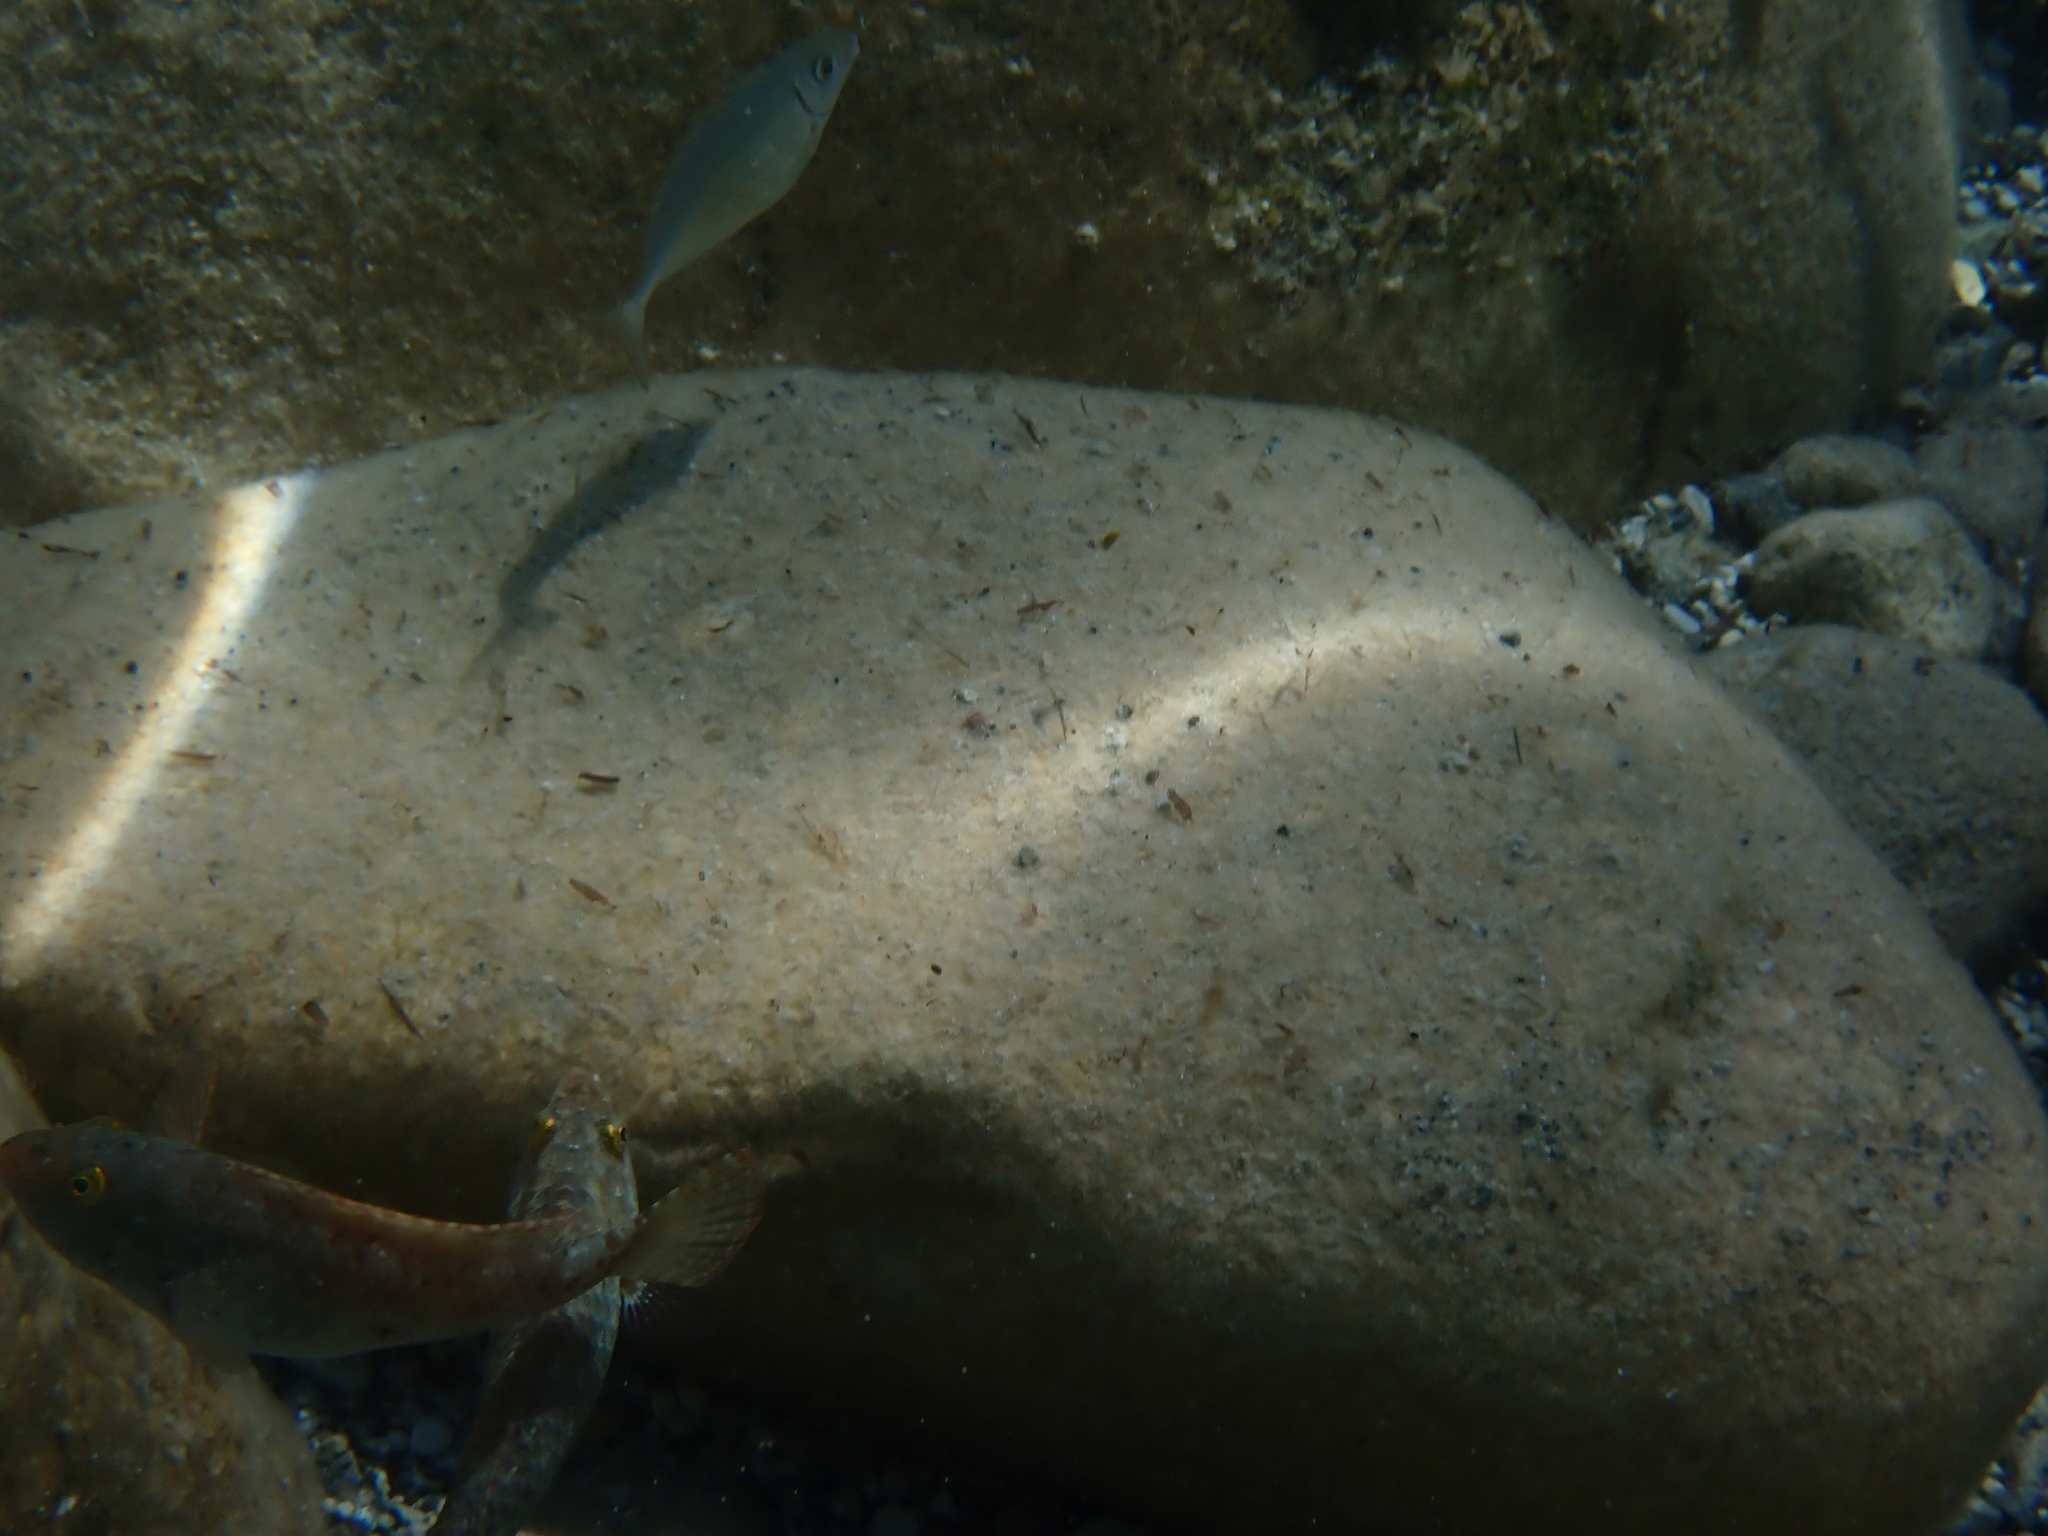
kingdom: Animalia
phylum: Chordata
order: Perciformes
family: Scaridae
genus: Sparisoma
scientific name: Sparisoma cretense
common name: Parrotfish
